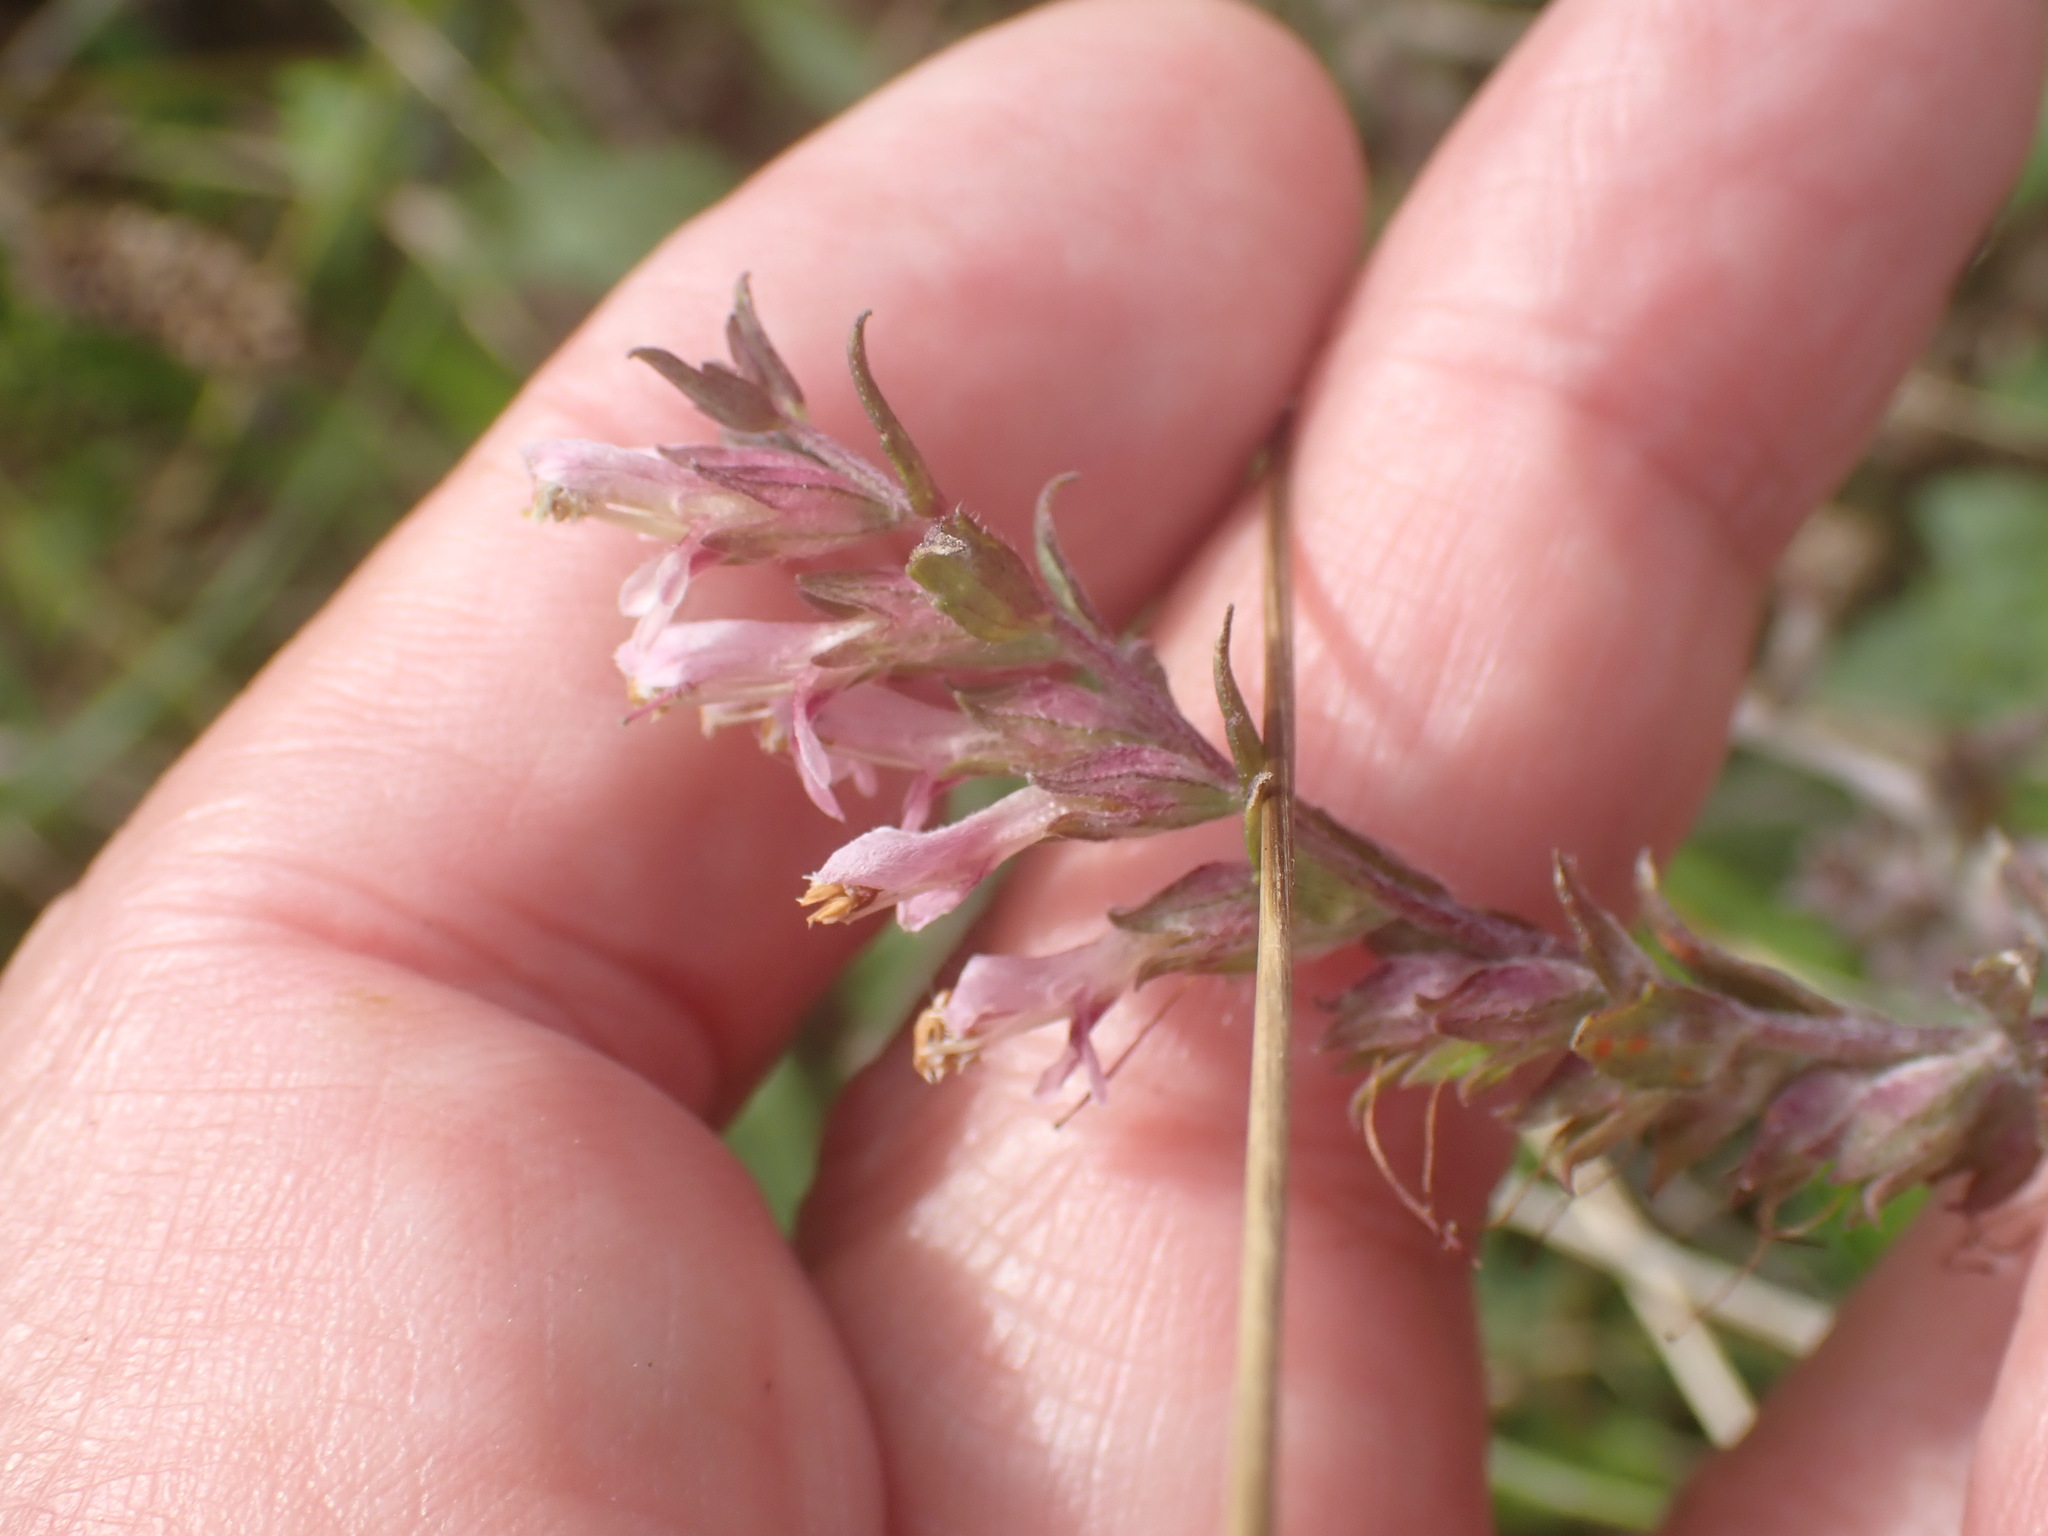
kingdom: Plantae
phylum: Tracheophyta
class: Magnoliopsida
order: Lamiales
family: Orobanchaceae
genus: Odontites
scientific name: Odontites vulgaris
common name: Broomrape
